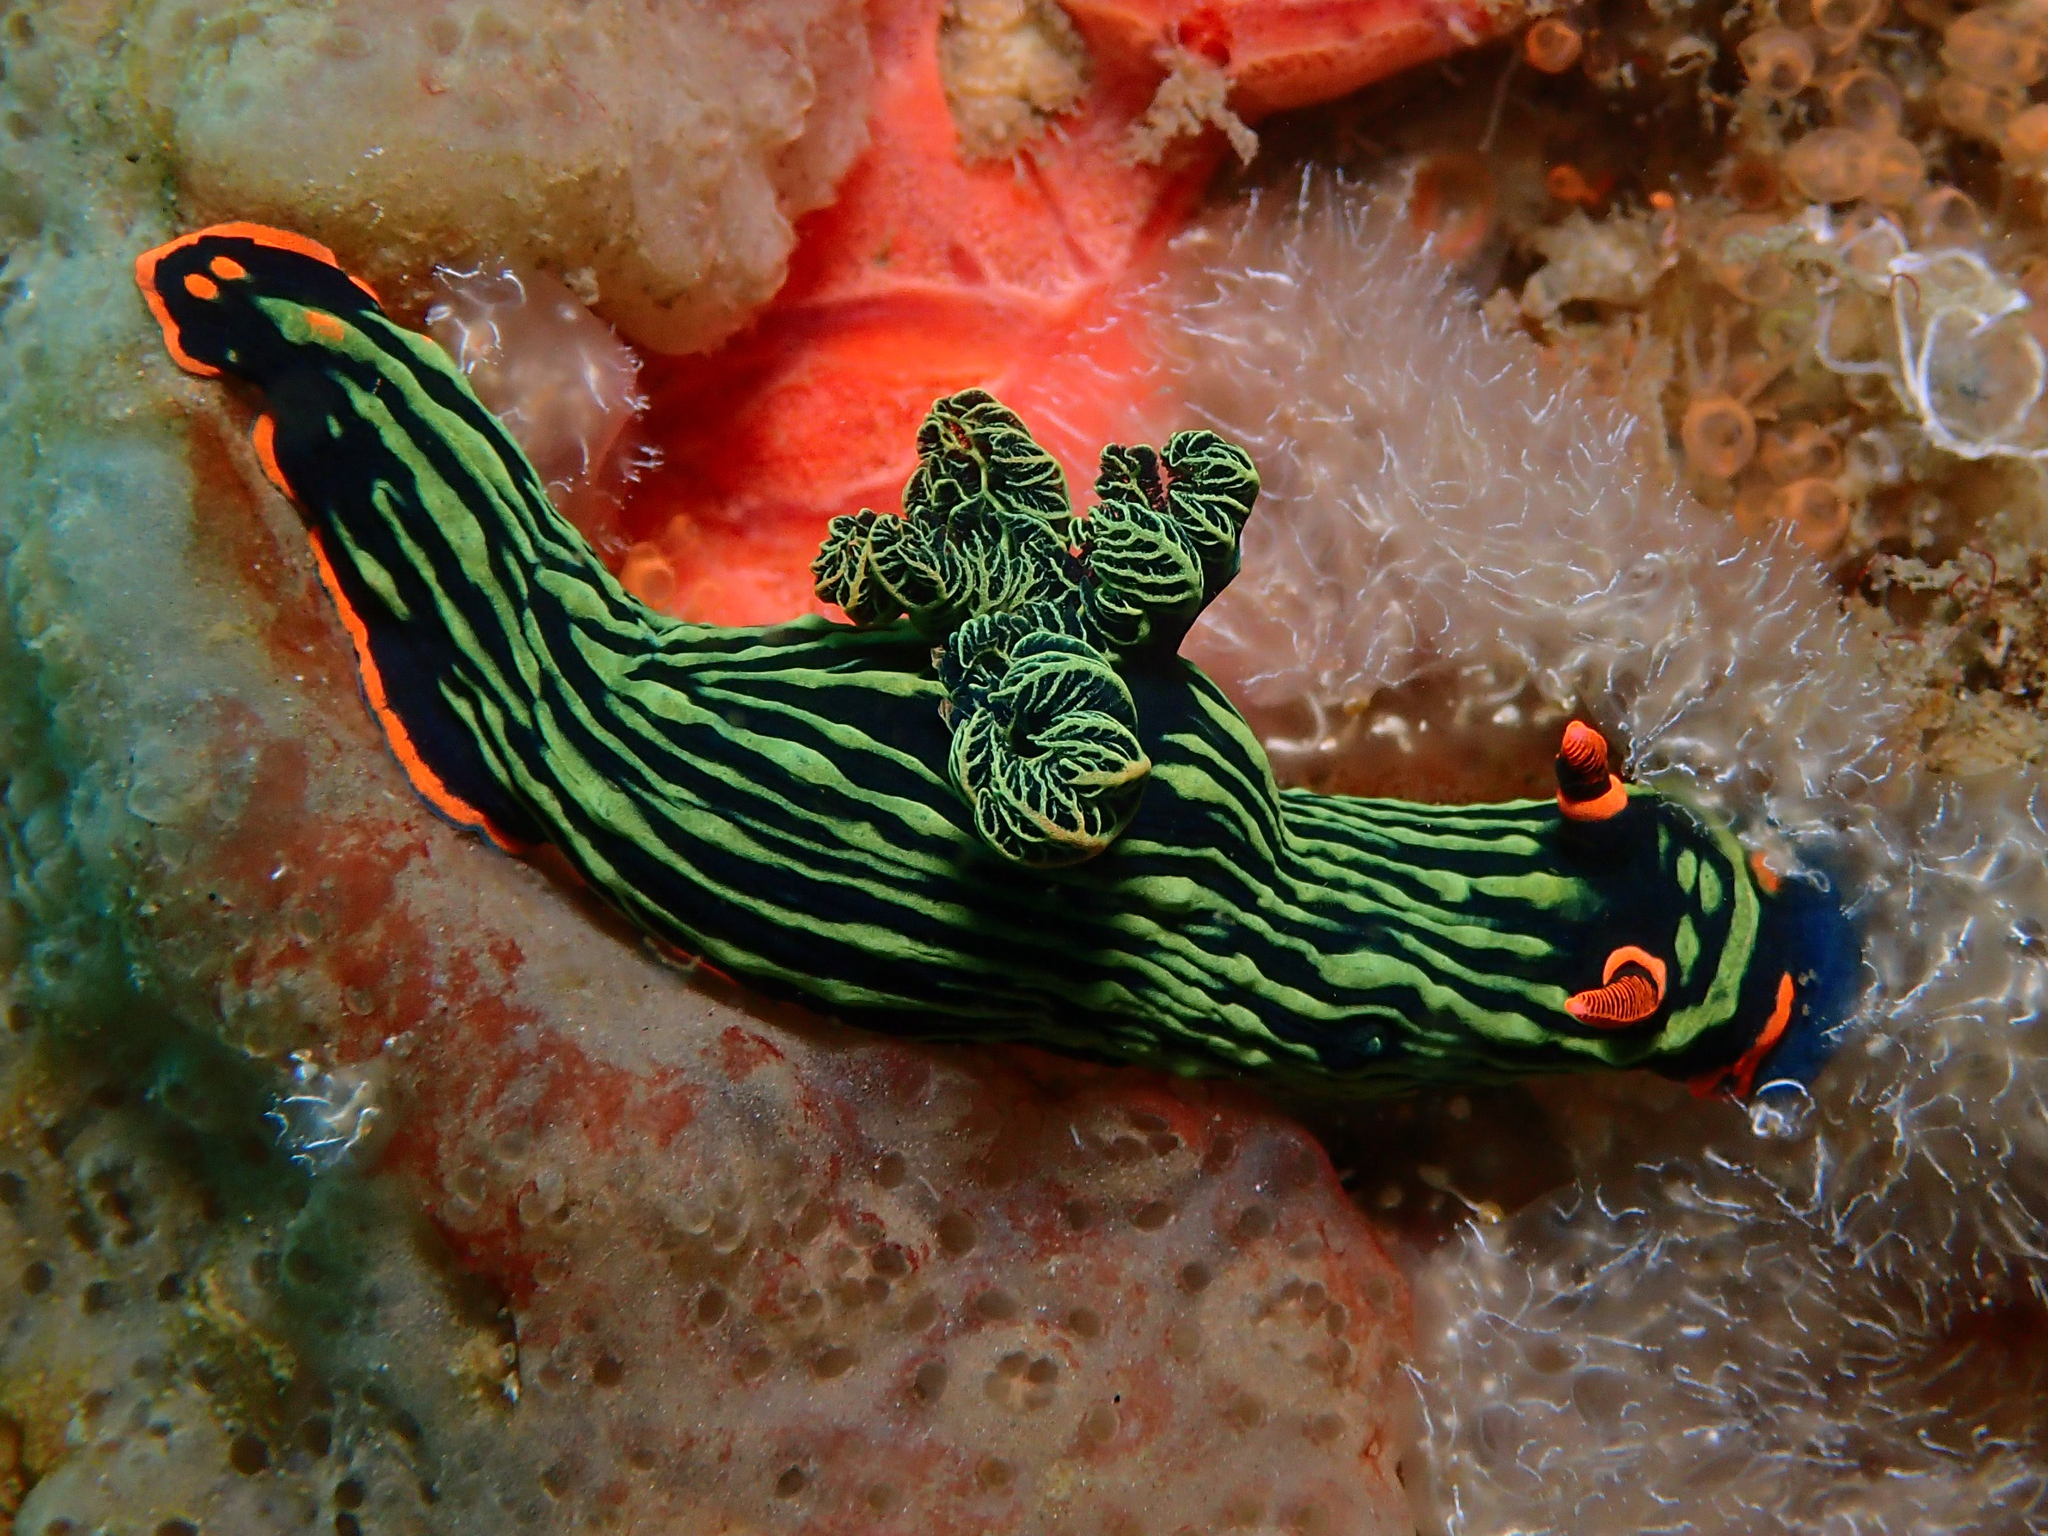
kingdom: Animalia
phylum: Mollusca
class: Gastropoda
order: Nudibranchia
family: Polyceridae
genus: Nembrotha
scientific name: Nembrotha kubaryana
